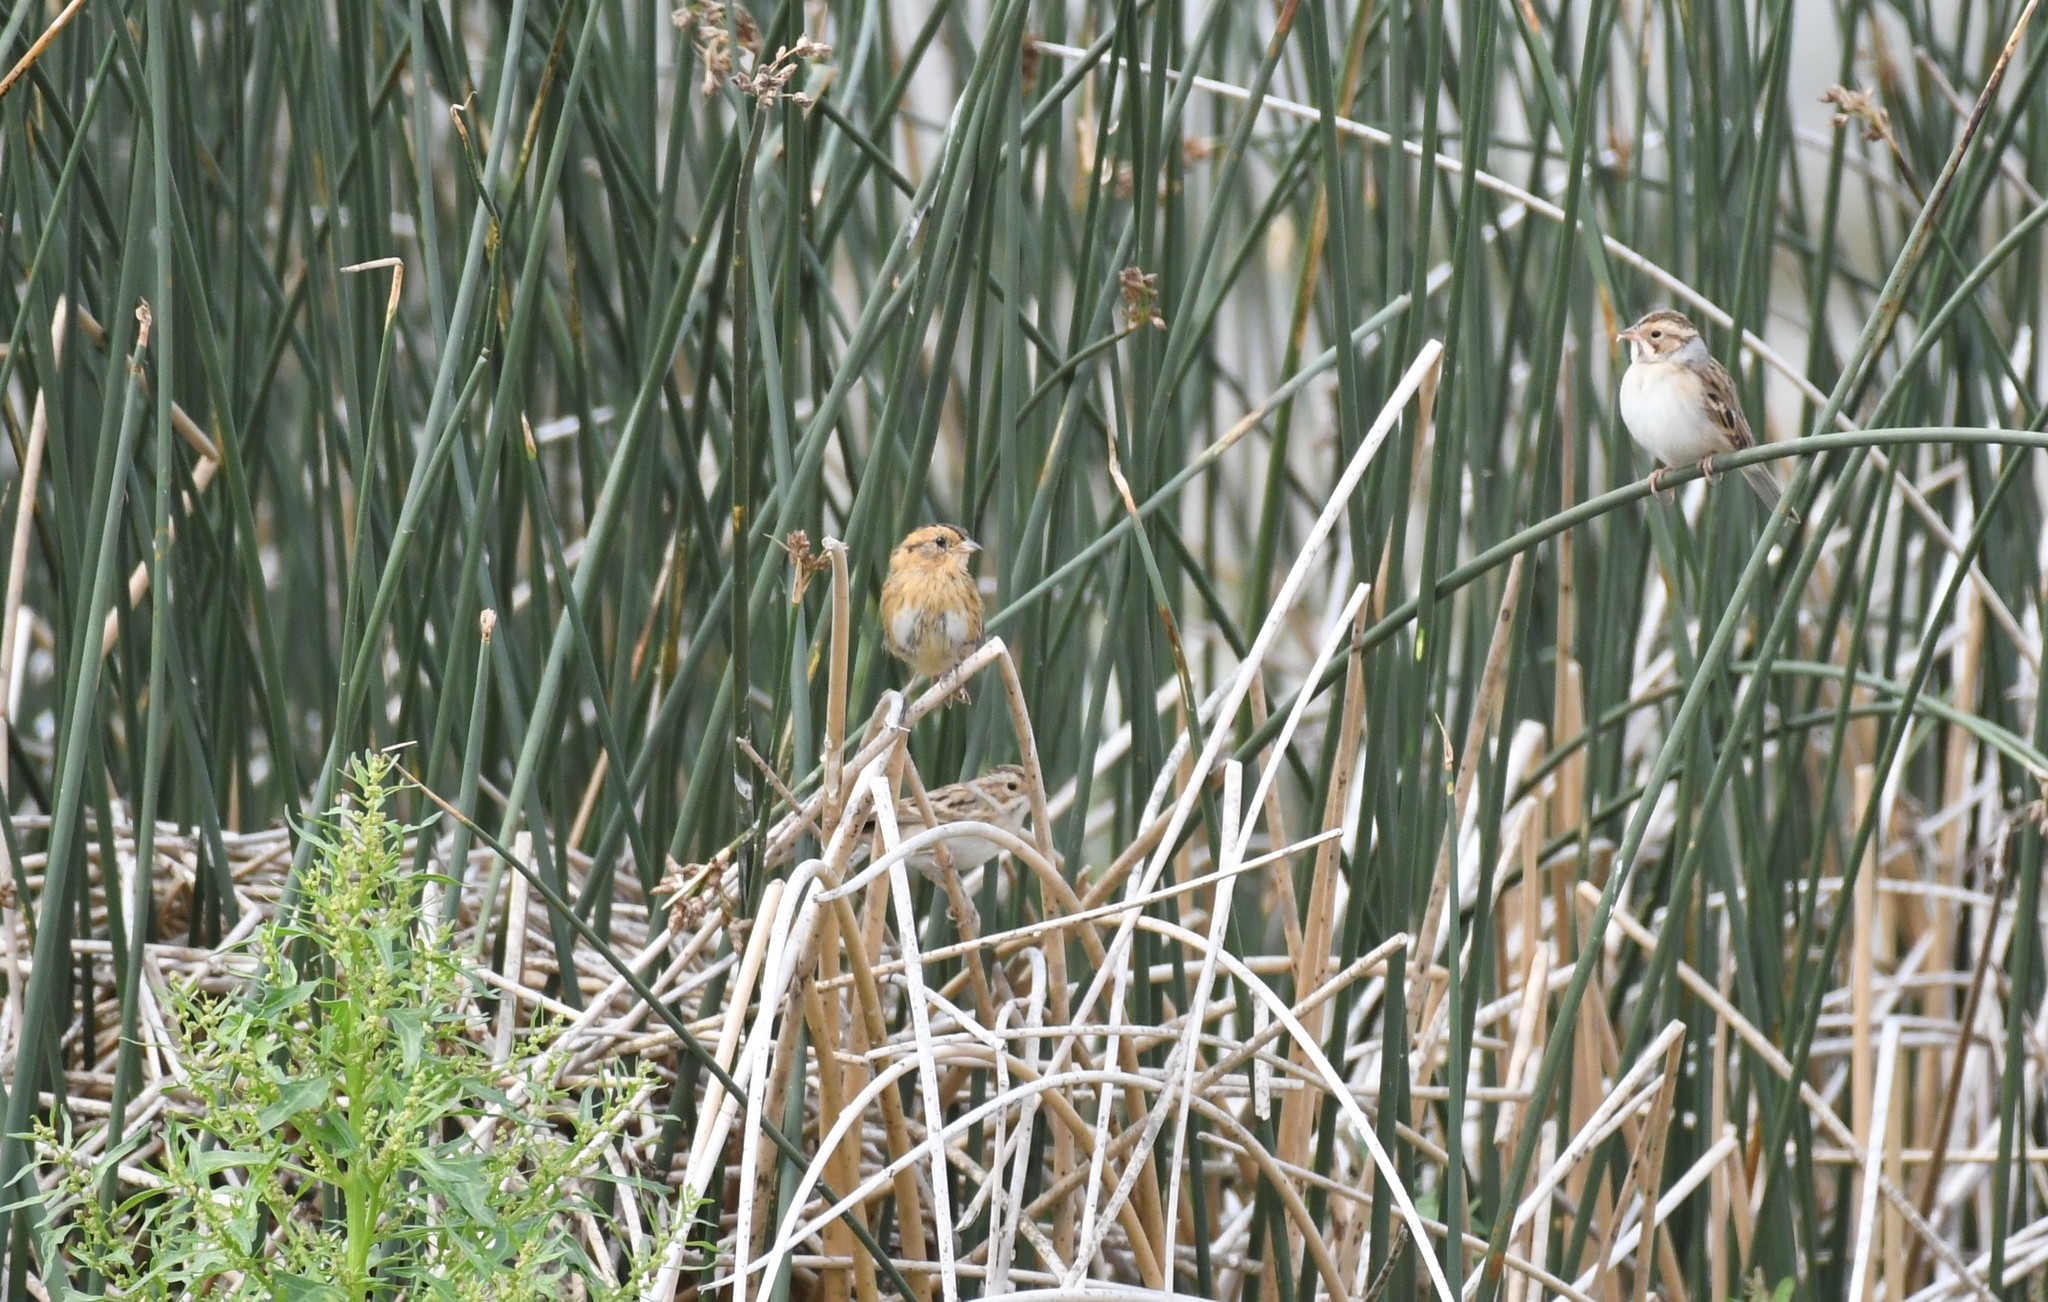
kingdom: Animalia
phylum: Chordata
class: Aves
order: Passeriformes
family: Passerellidae
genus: Ammospiza
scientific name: Ammospiza nelsoni
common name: Nelson's sparrow
